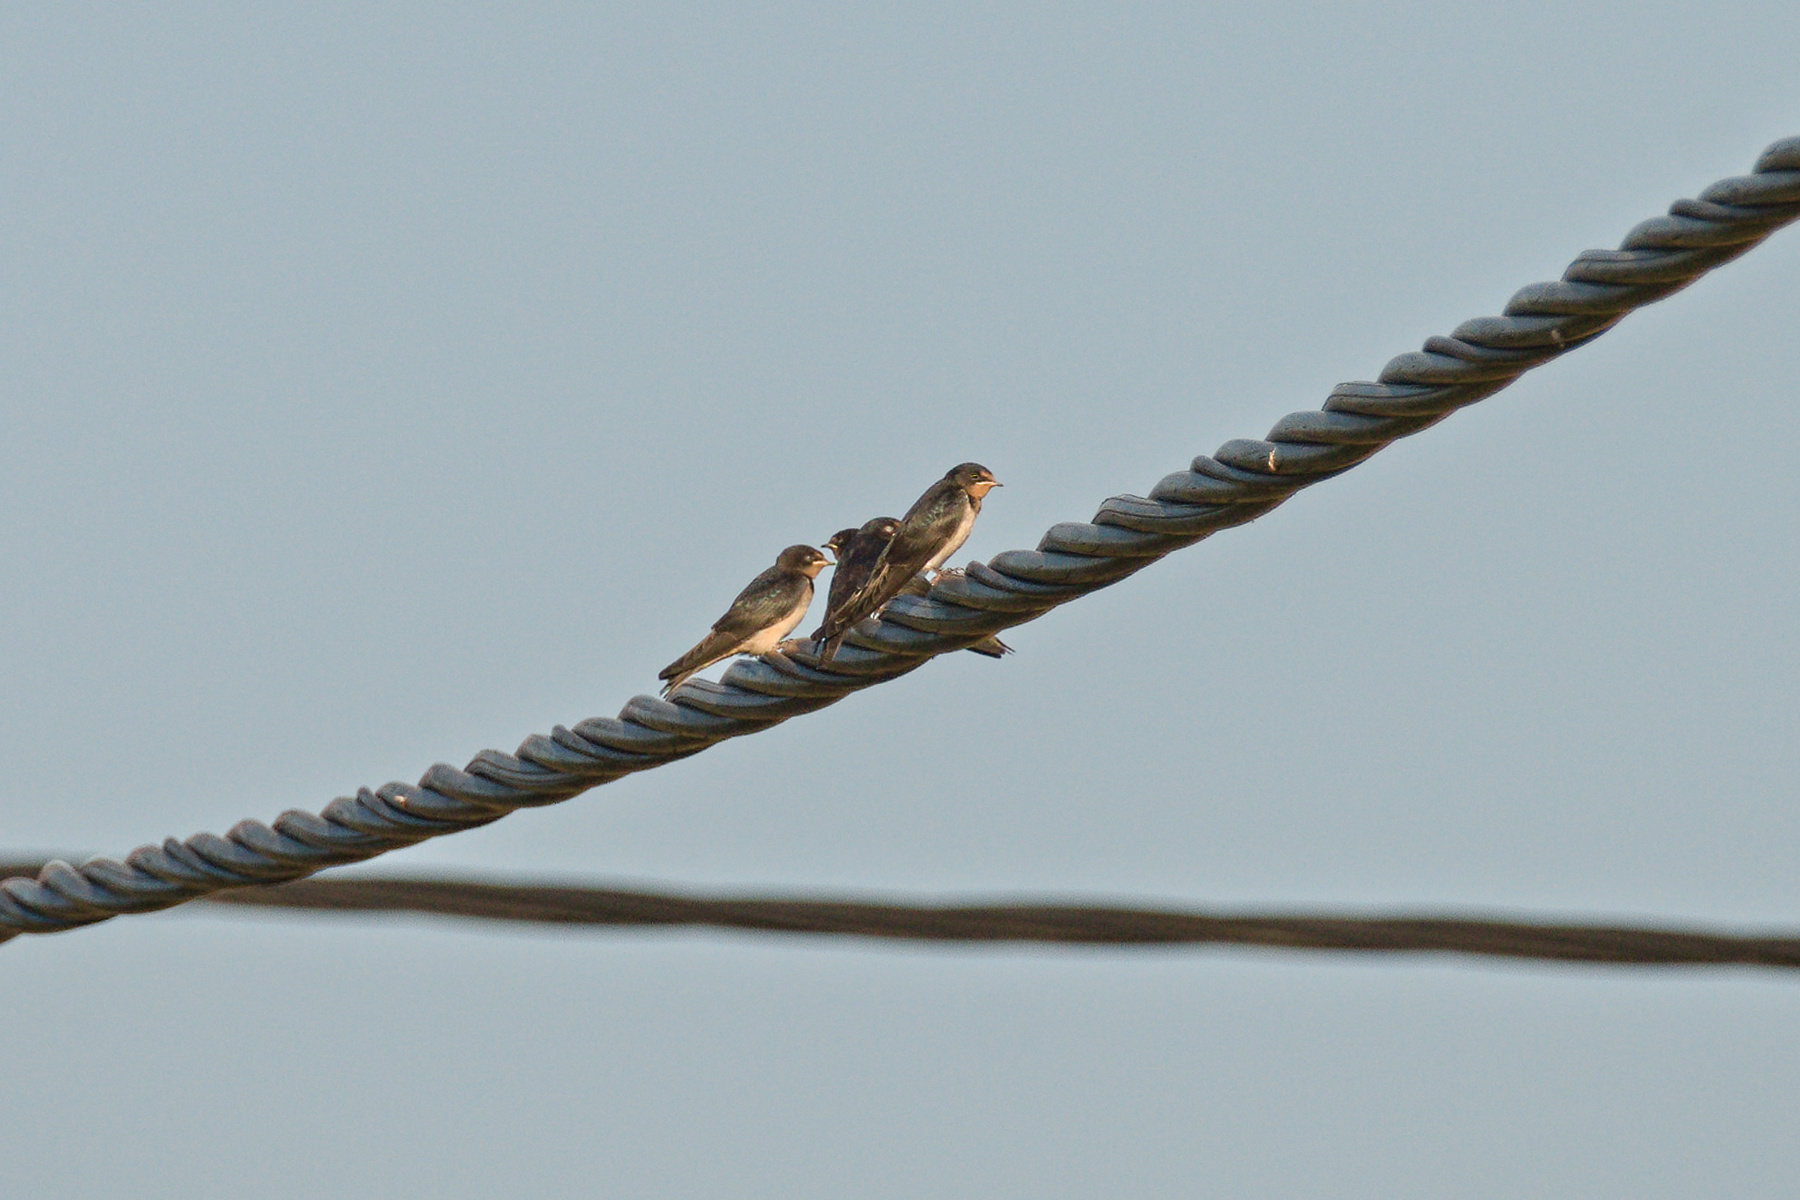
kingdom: Animalia
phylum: Chordata
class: Aves
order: Passeriformes
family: Hirundinidae
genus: Hirundo
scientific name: Hirundo rustica
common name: Barn swallow
